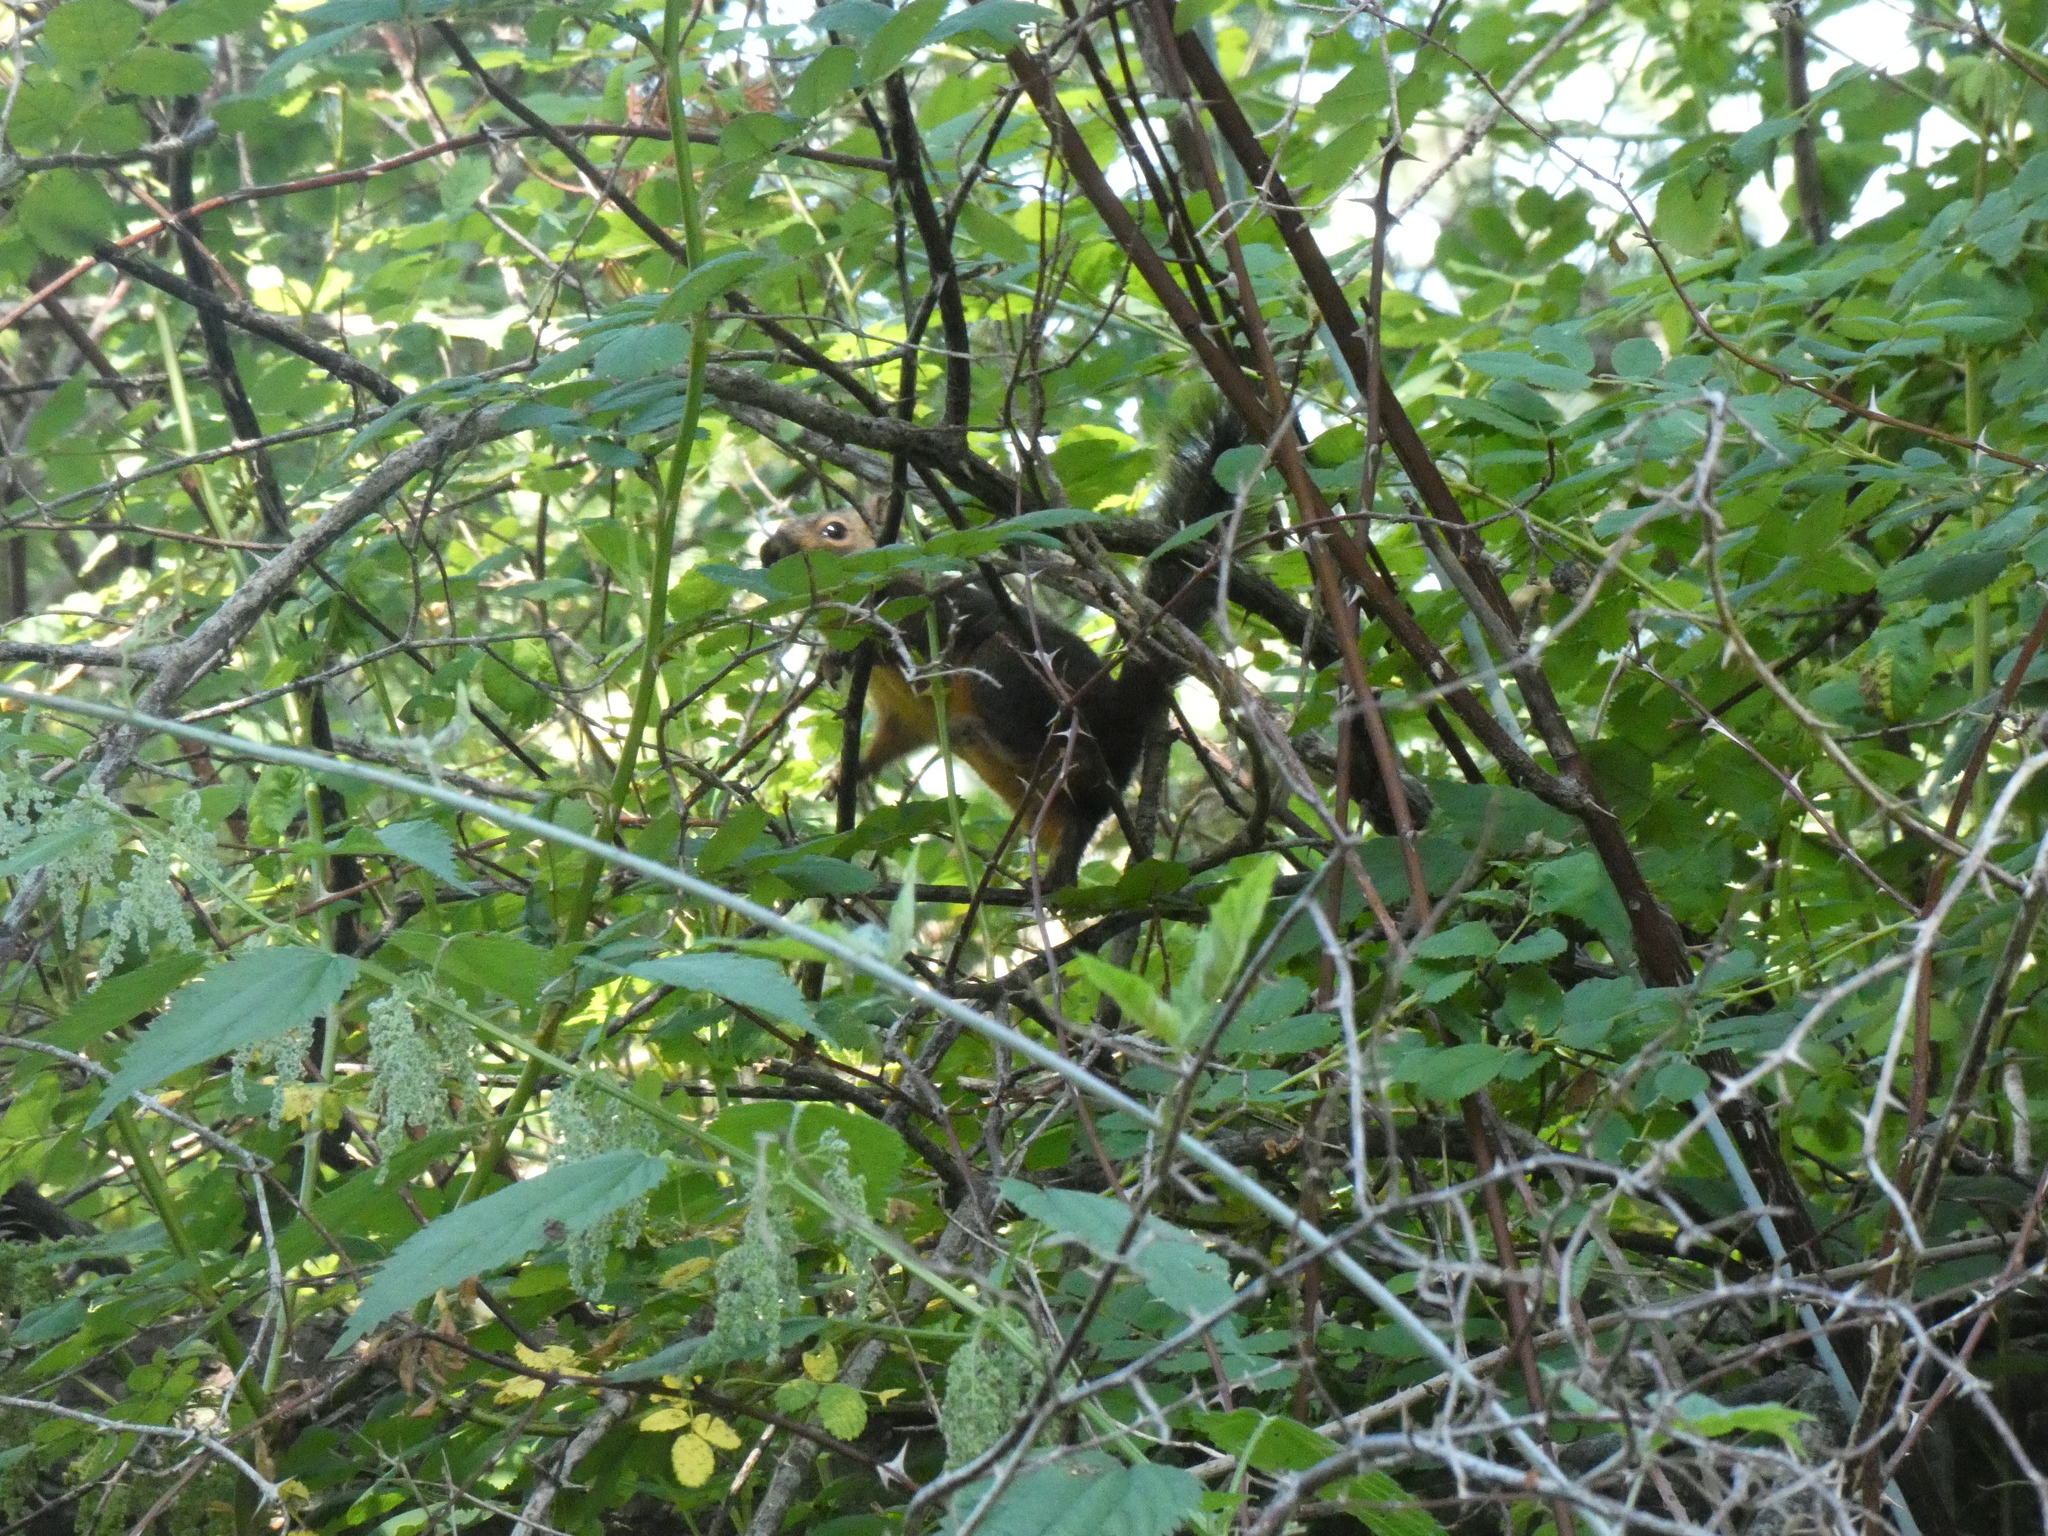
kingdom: Animalia
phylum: Chordata
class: Mammalia
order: Rodentia
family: Sciuridae
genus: Tamiasciurus
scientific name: Tamiasciurus douglasii
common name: Douglas's squirrel
